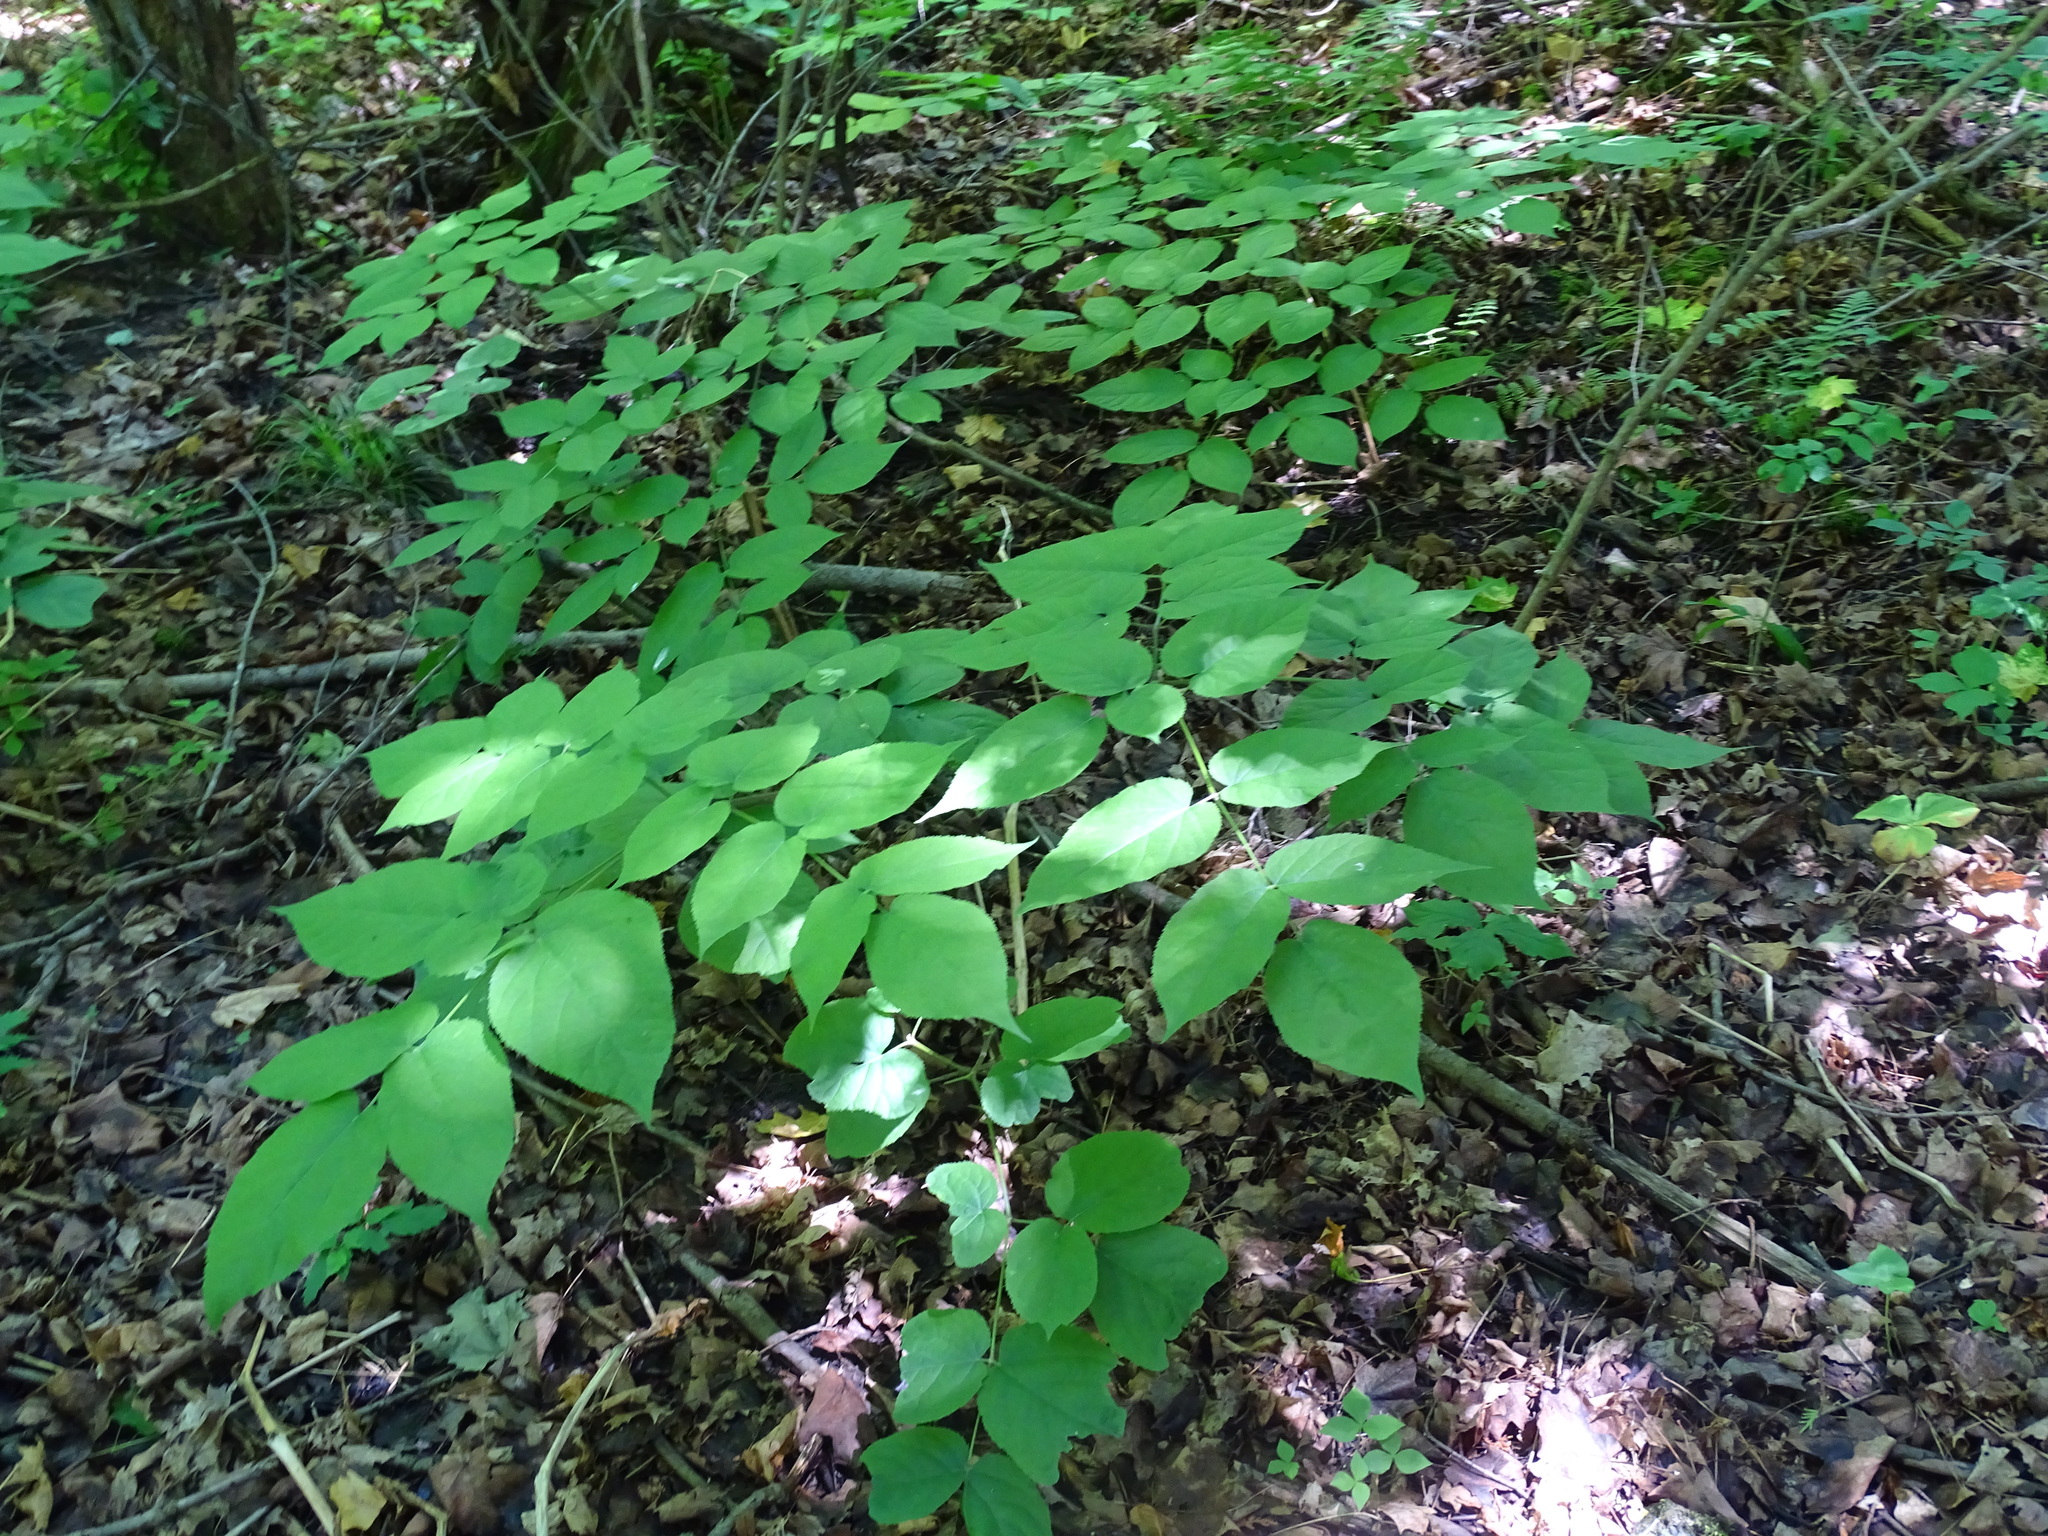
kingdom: Plantae
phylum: Tracheophyta
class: Magnoliopsida
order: Apiales
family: Araliaceae
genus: Aralia
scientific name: Aralia racemosa
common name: American-spikenard
